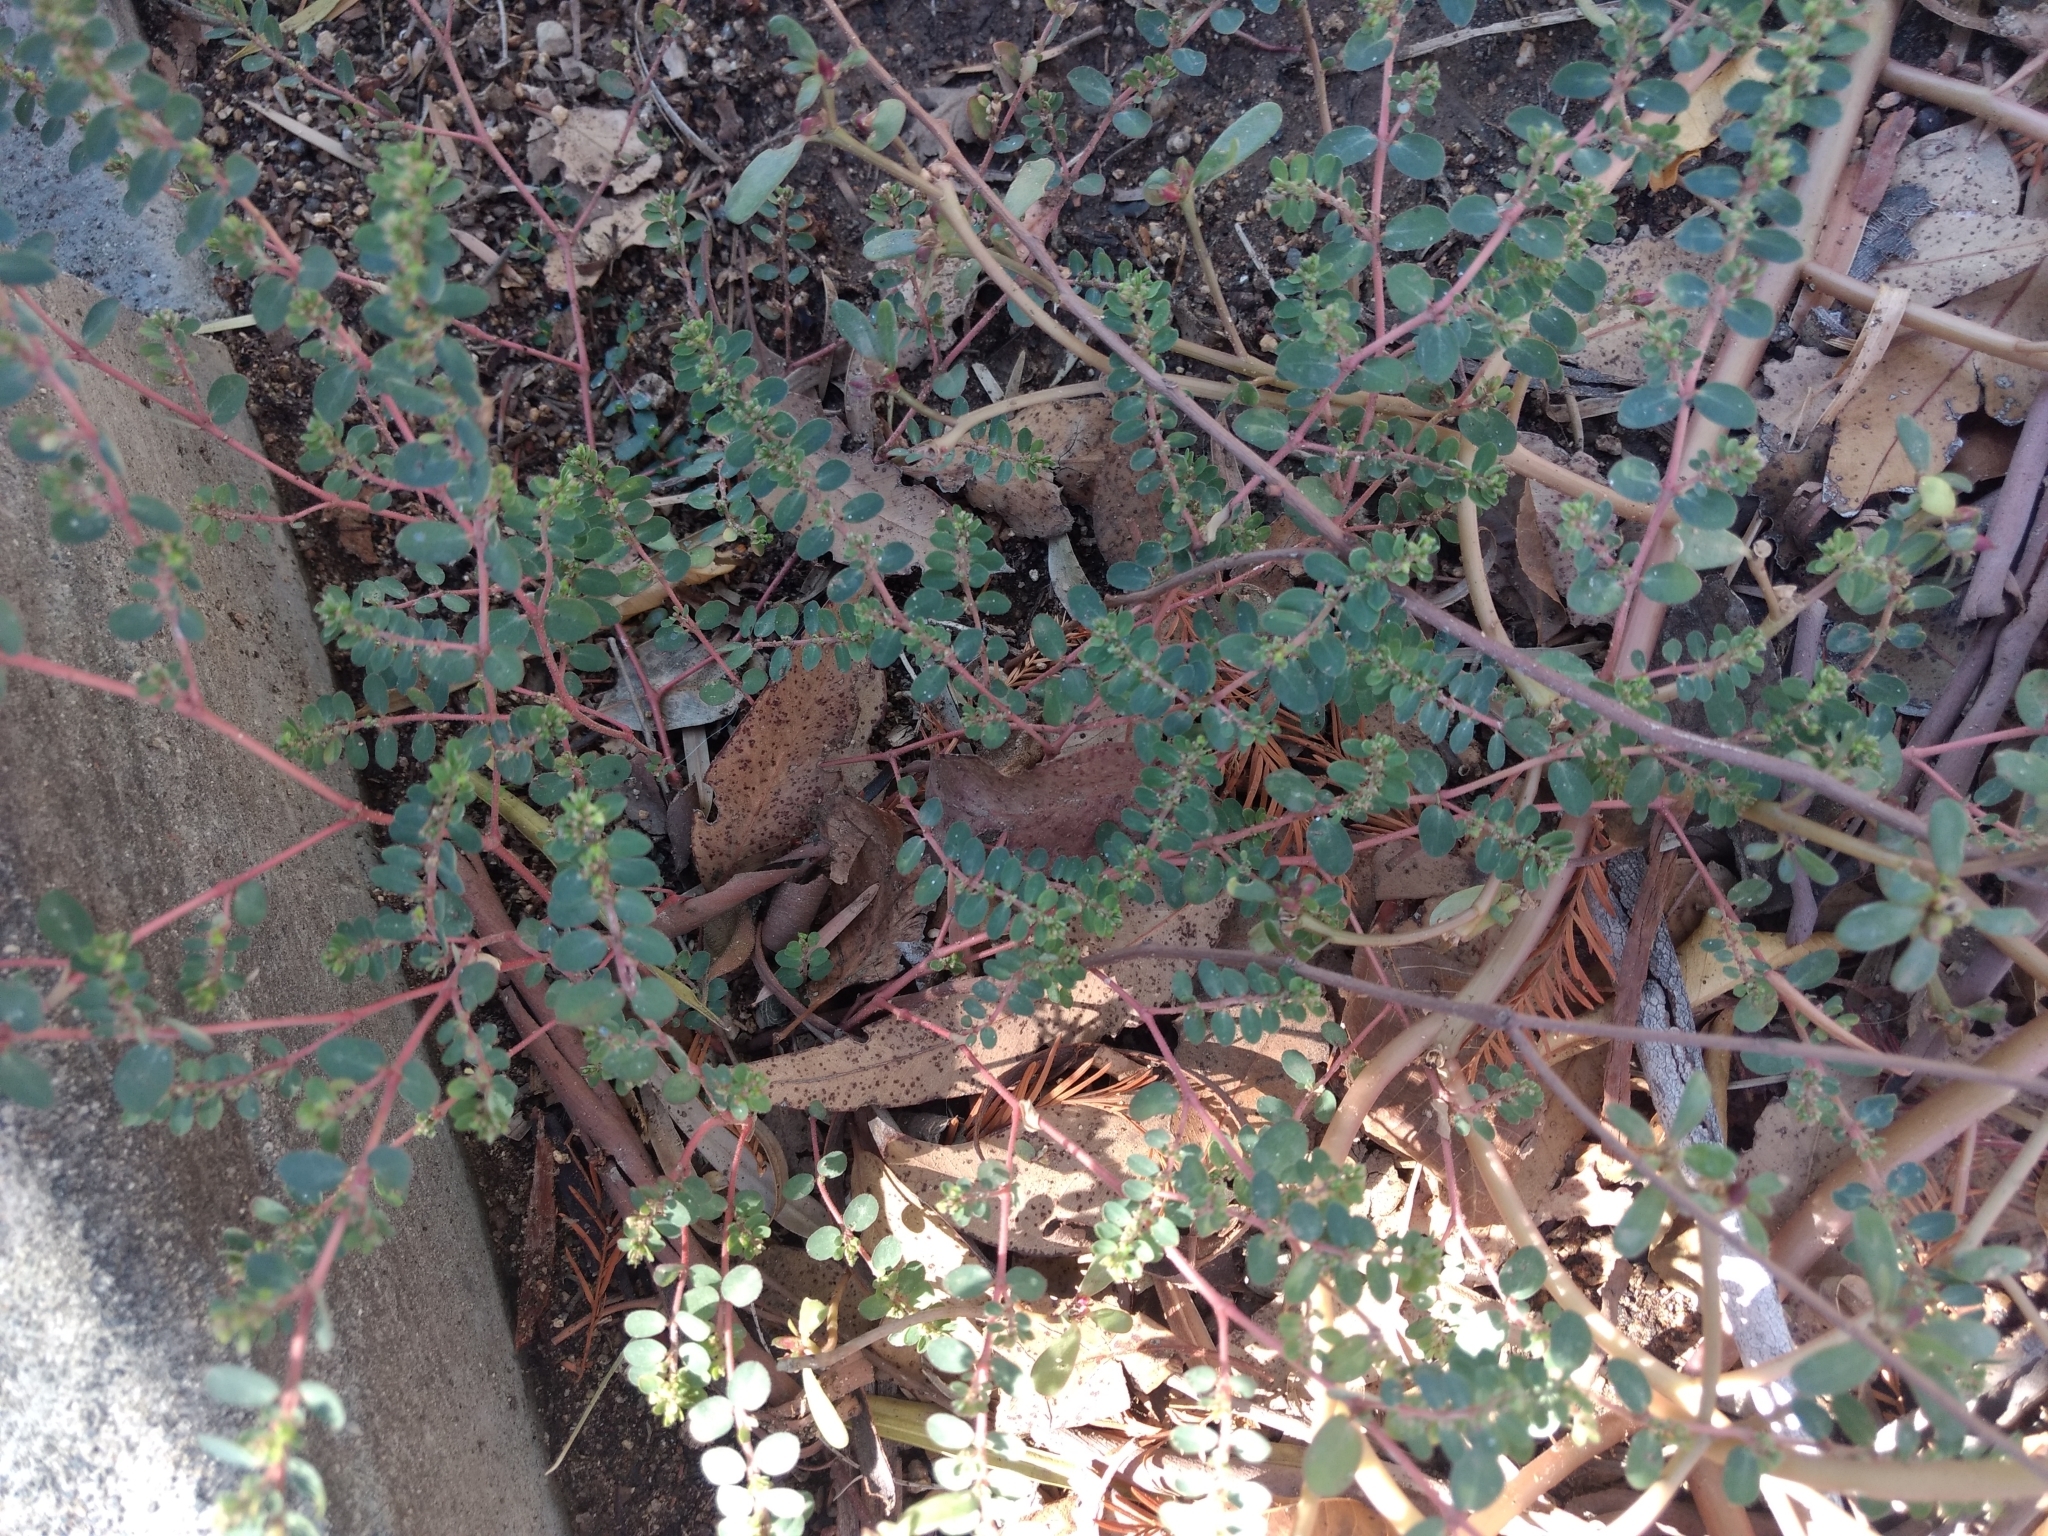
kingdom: Plantae
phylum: Tracheophyta
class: Magnoliopsida
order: Malpighiales
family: Euphorbiaceae
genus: Euphorbia
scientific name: Euphorbia prostrata
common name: Prostrate sandmat
